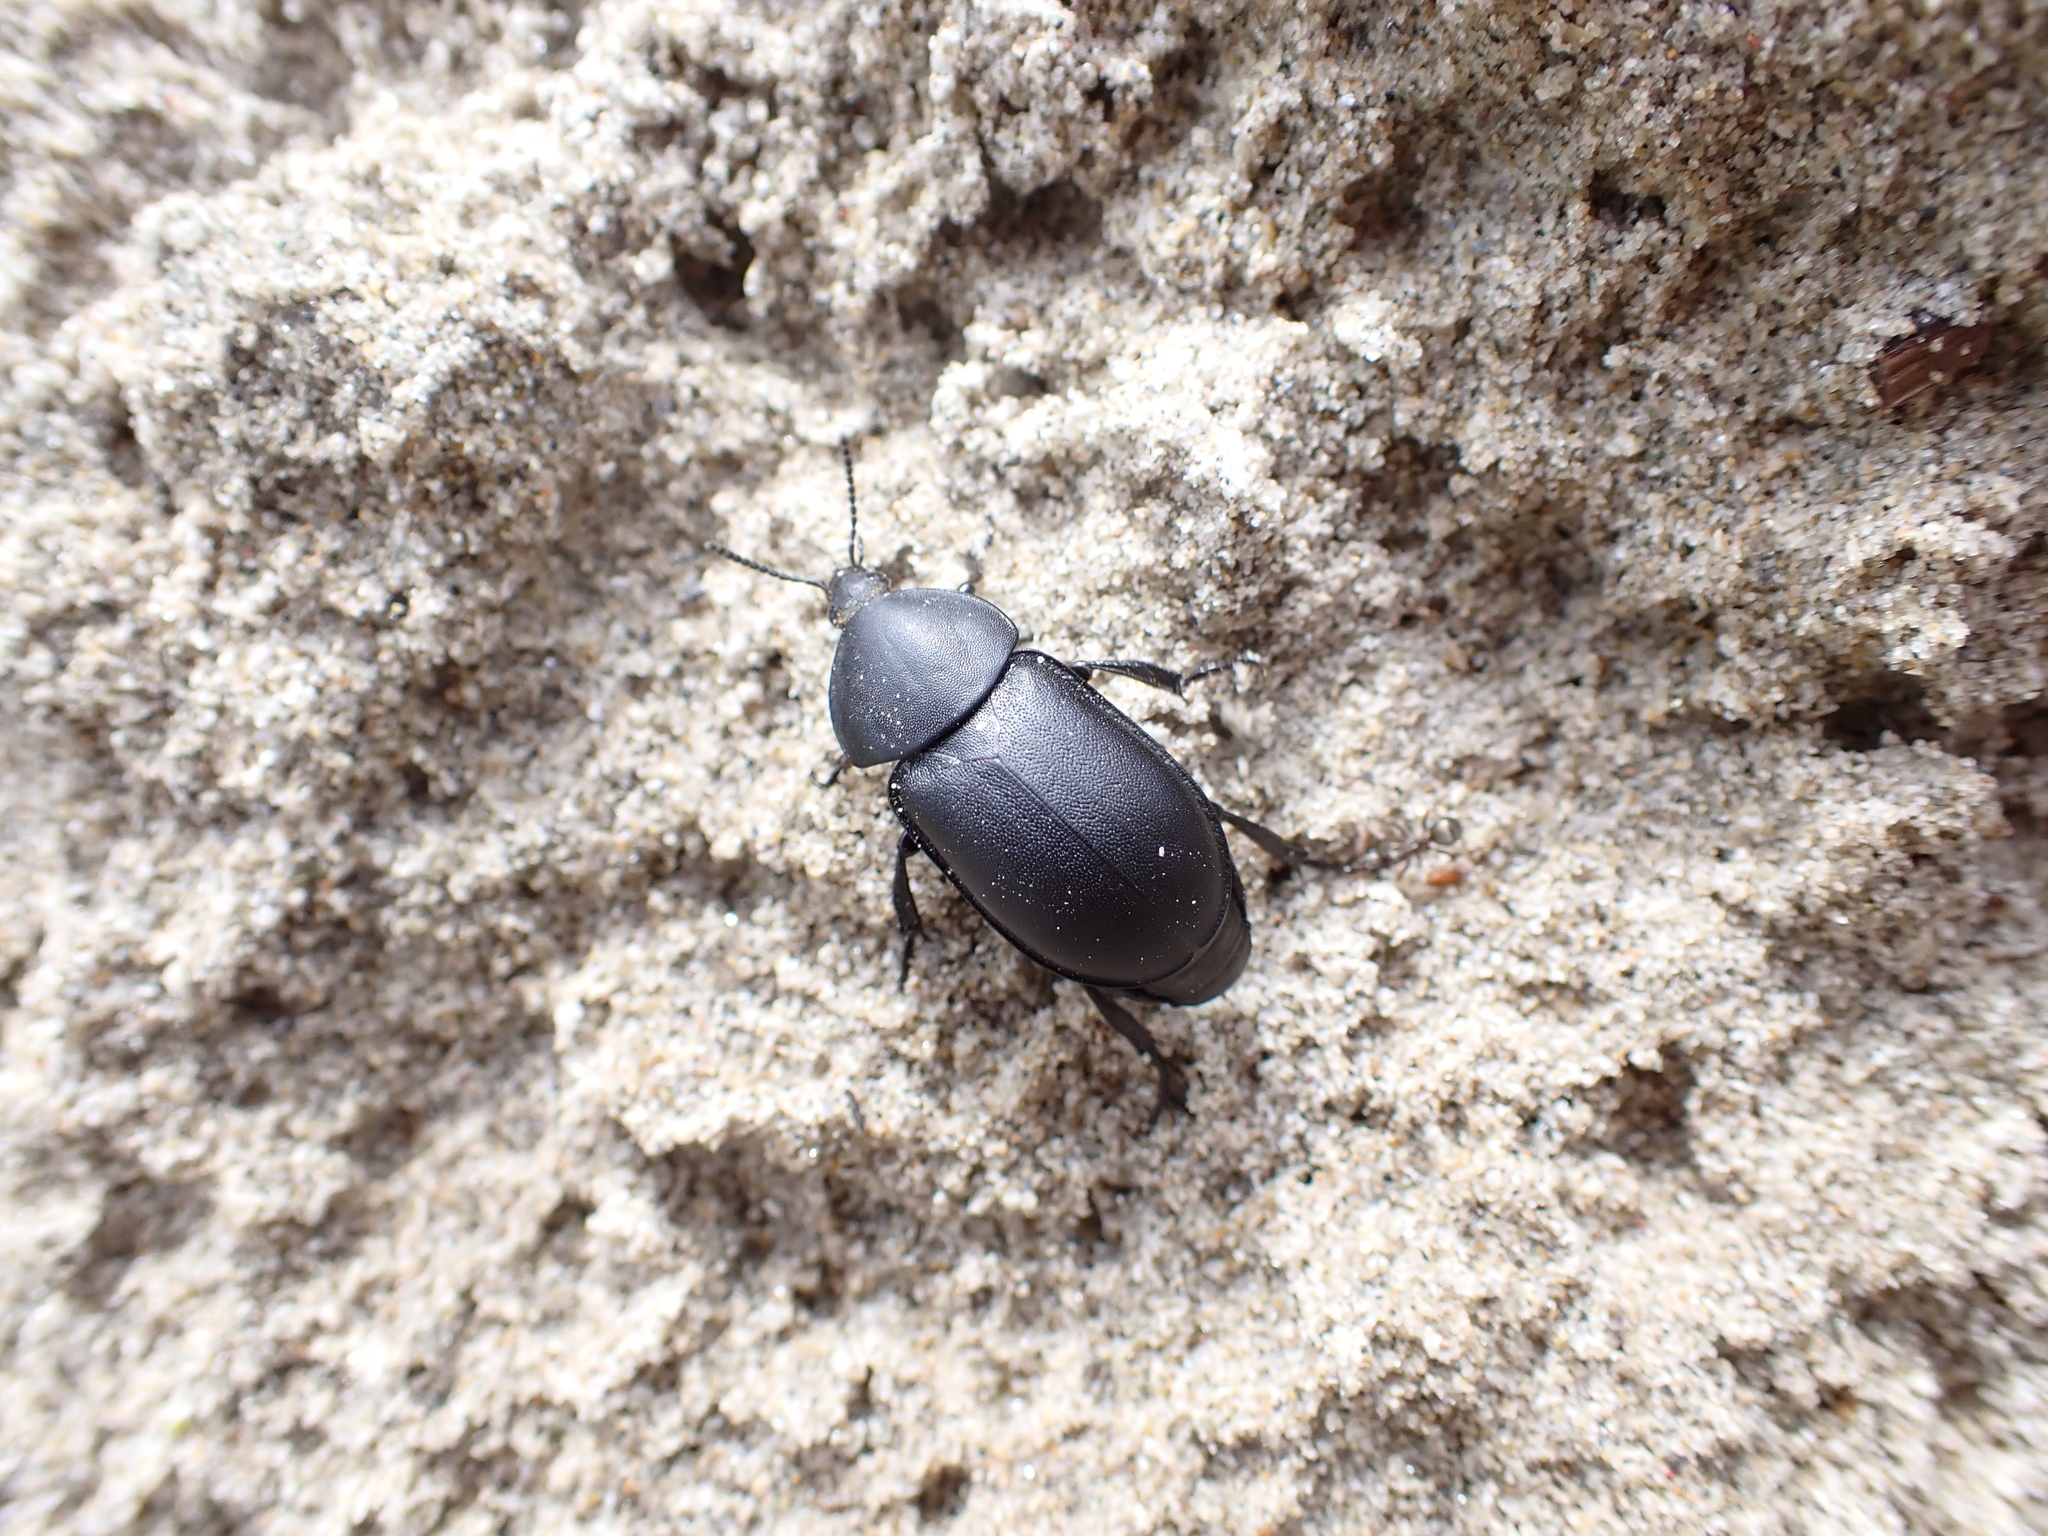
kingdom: Animalia
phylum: Arthropoda
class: Insecta
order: Coleoptera
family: Staphylinidae
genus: Silpha
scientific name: Silpha laevigata
